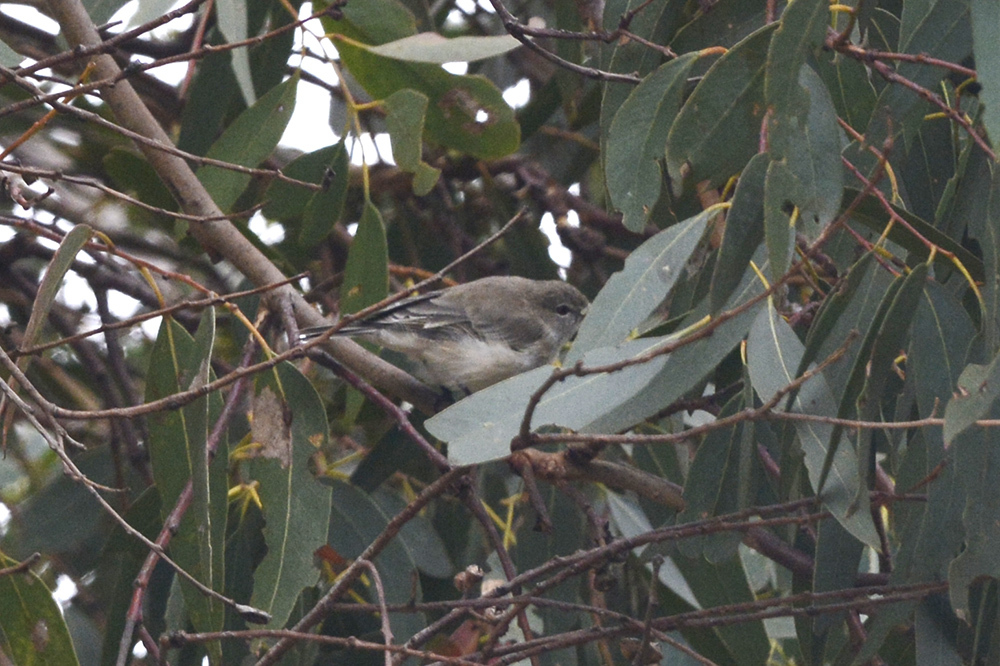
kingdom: Animalia
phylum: Chordata
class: Aves
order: Passeriformes
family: Acanthizidae
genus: Gerygone
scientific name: Gerygone fusca
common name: Western gerygone
